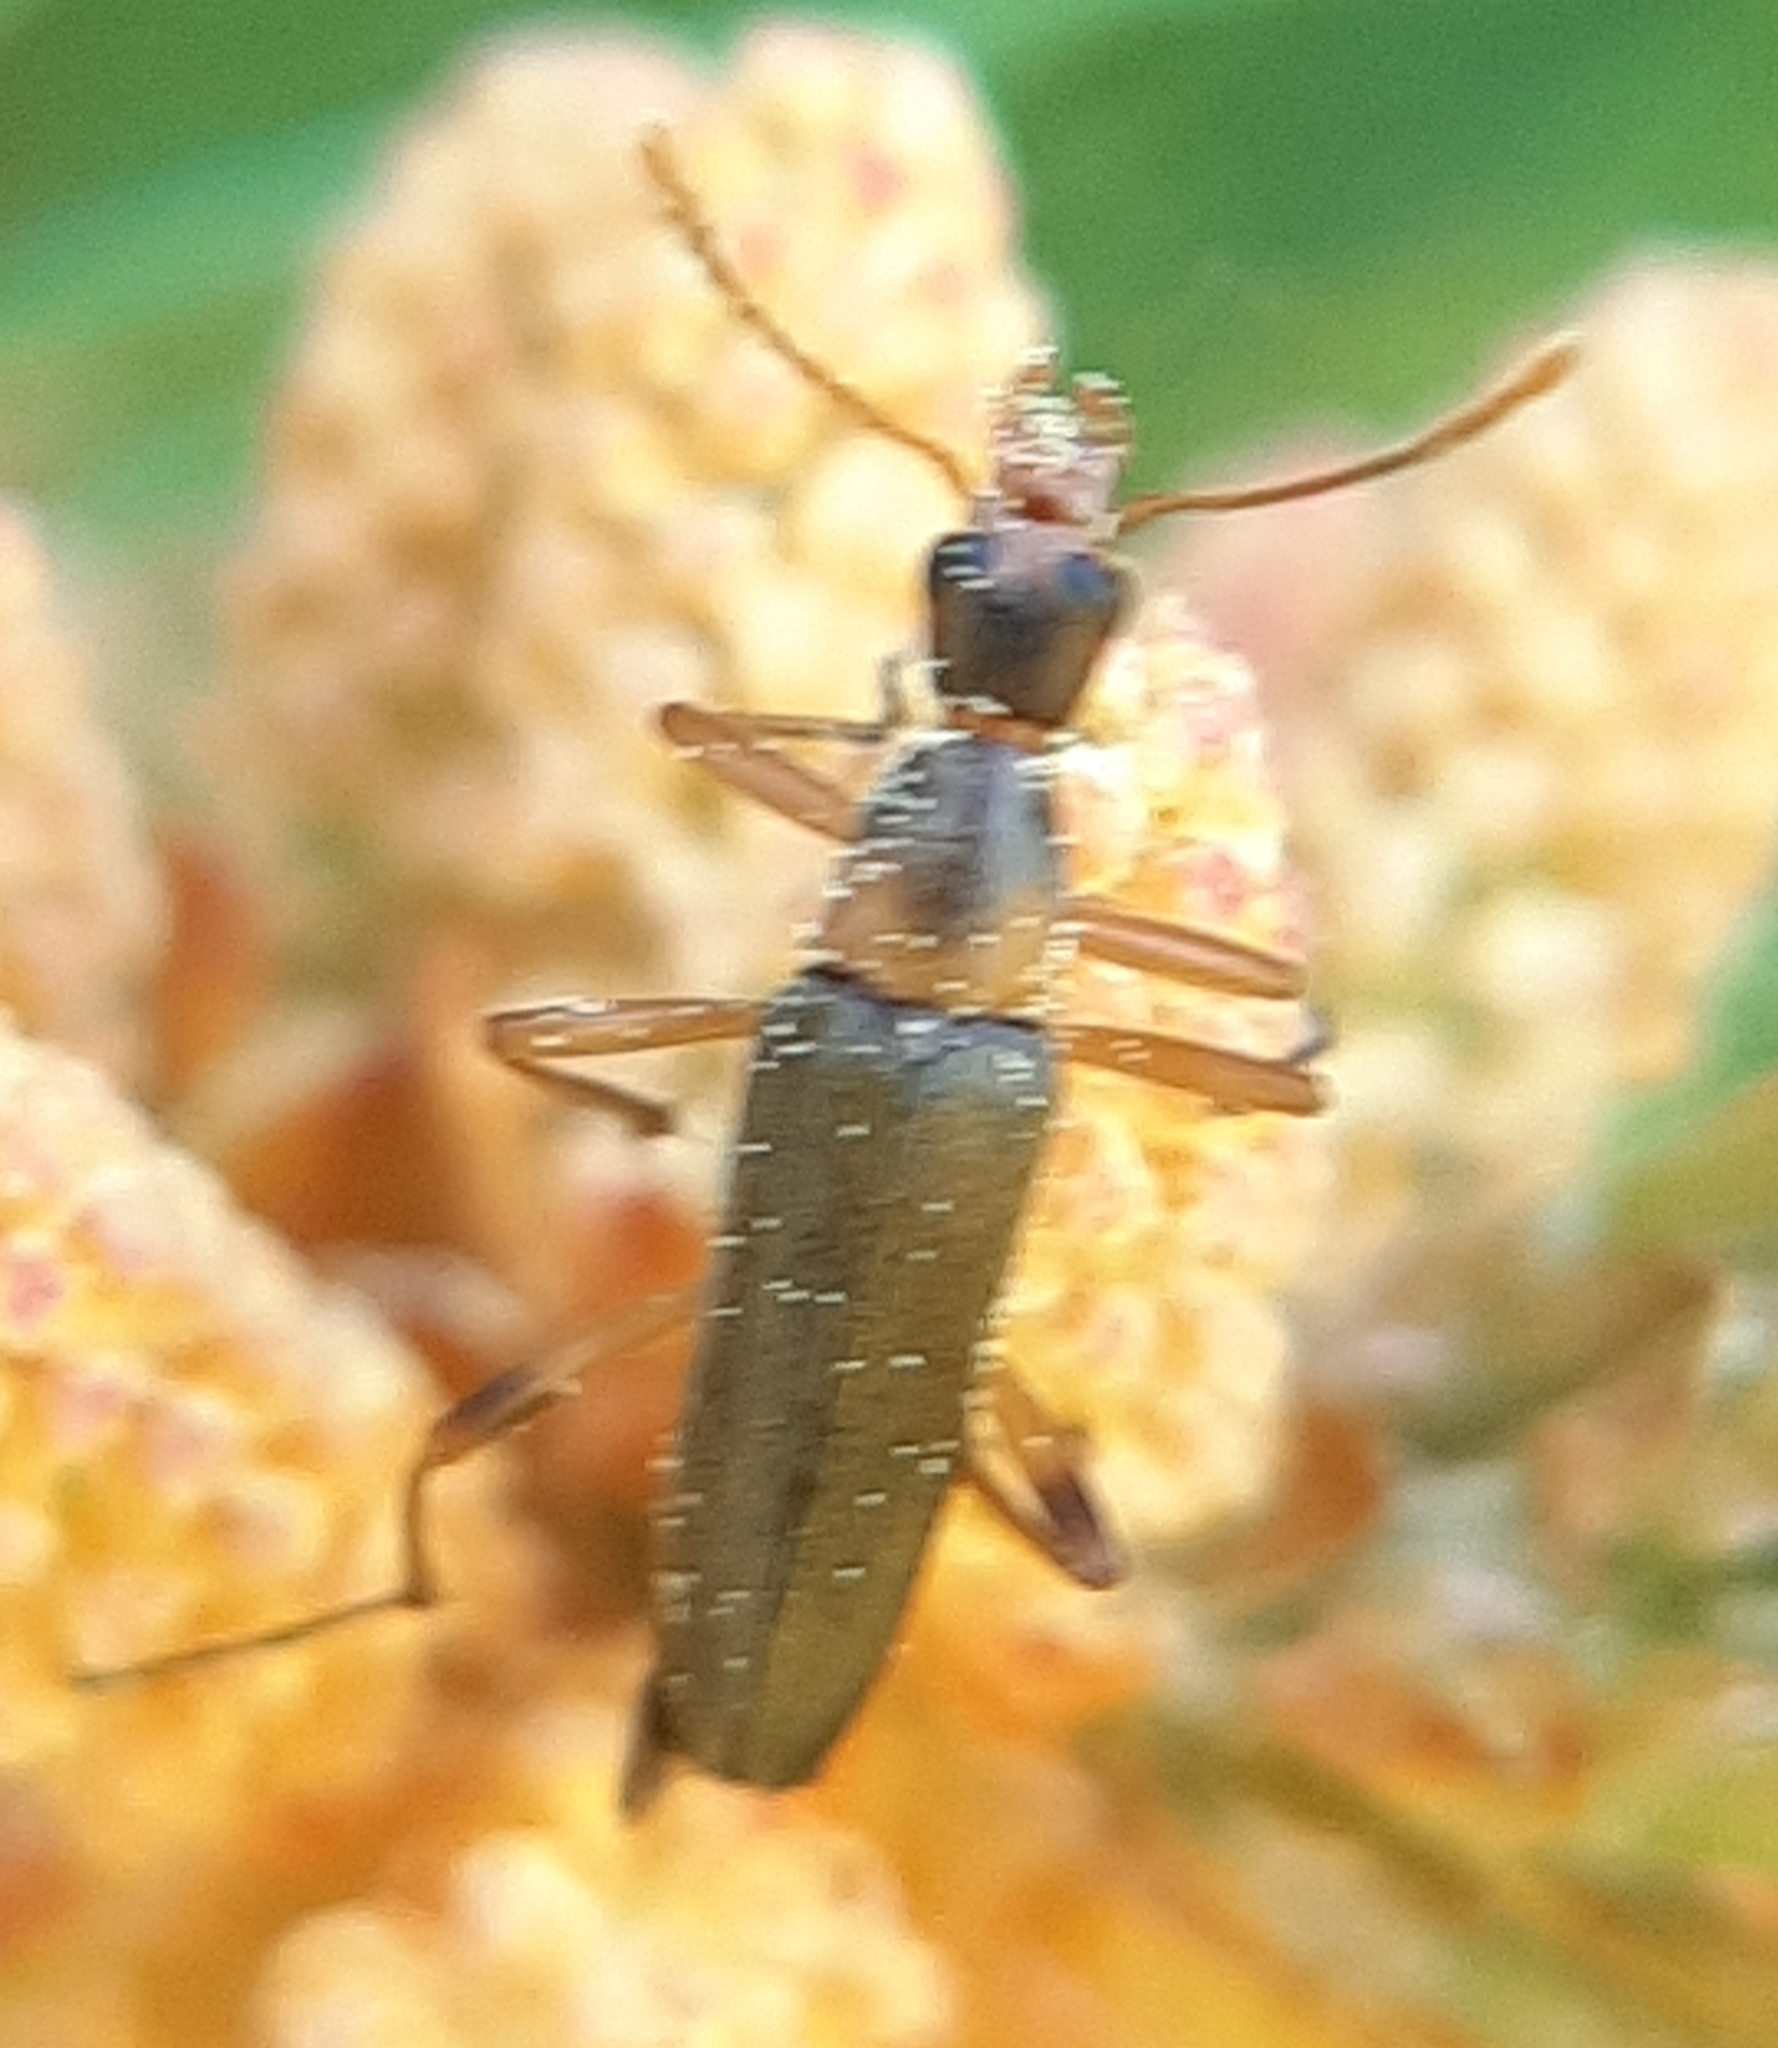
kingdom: Animalia
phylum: Arthropoda
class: Insecta
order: Coleoptera
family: Stenotrachelidae
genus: Cephaloon
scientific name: Cephaloon lepturides
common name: False leptura beetle
